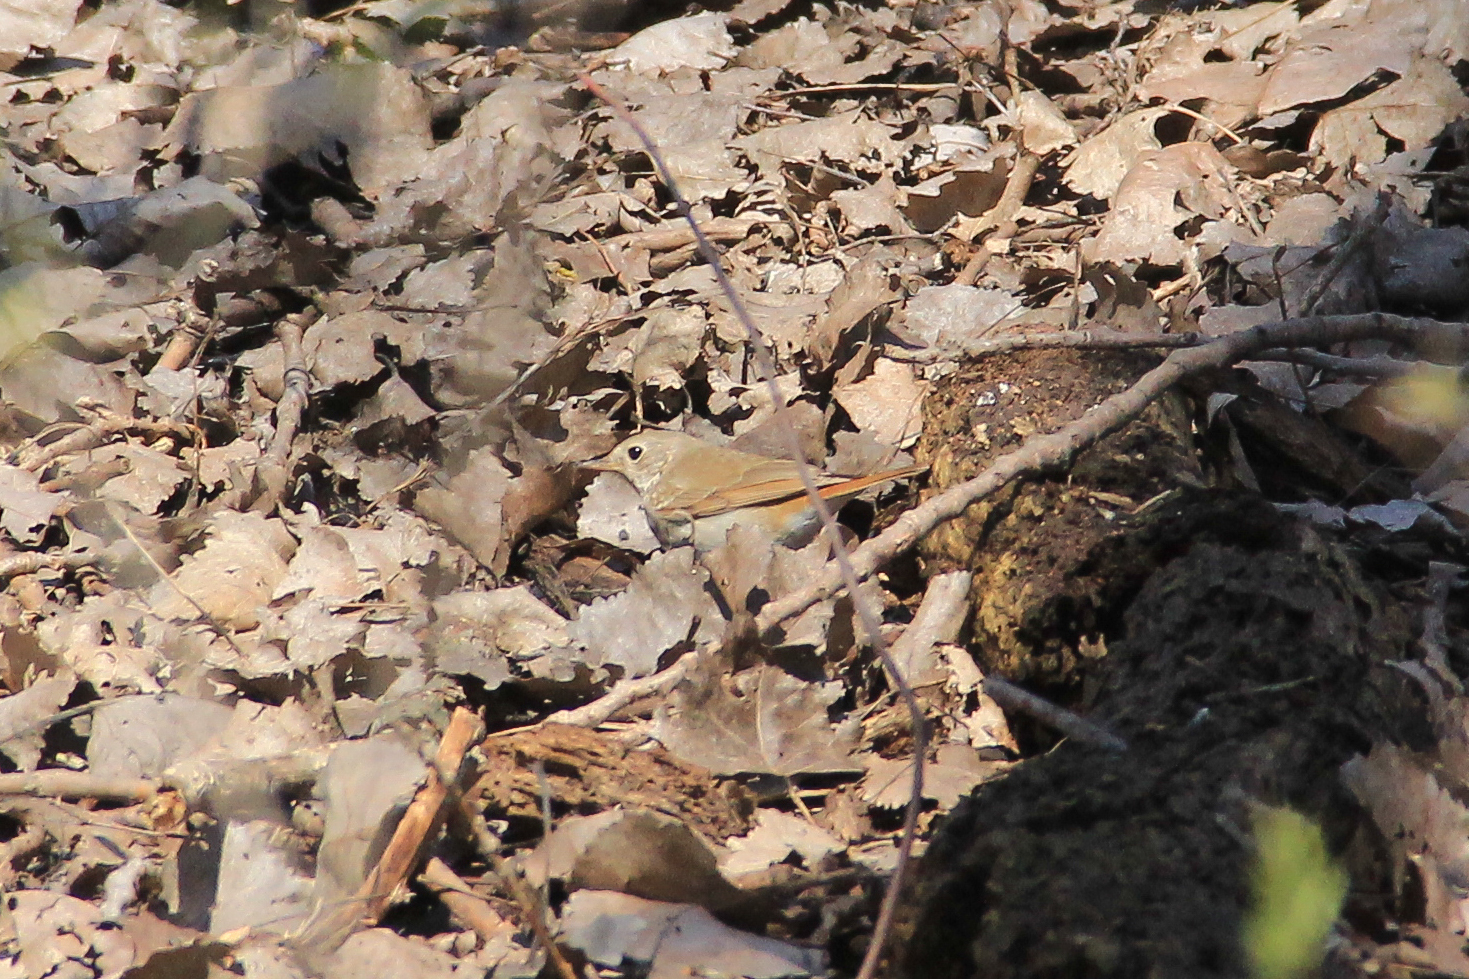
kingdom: Animalia
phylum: Chordata
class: Aves
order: Passeriformes
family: Turdidae
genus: Catharus
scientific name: Catharus guttatus
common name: Hermit thrush
